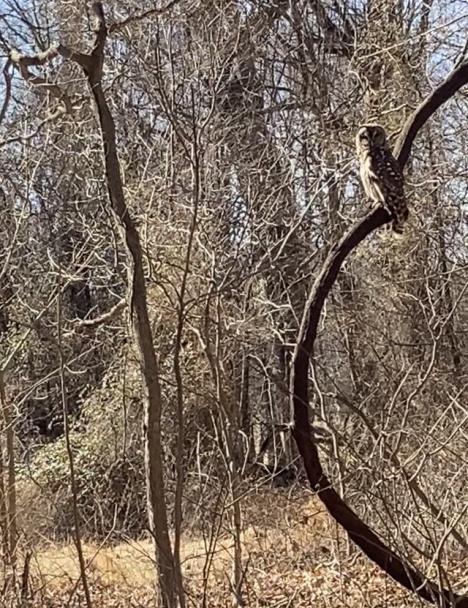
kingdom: Animalia
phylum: Chordata
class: Aves
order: Strigiformes
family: Strigidae
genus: Strix
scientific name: Strix varia
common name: Barred owl
